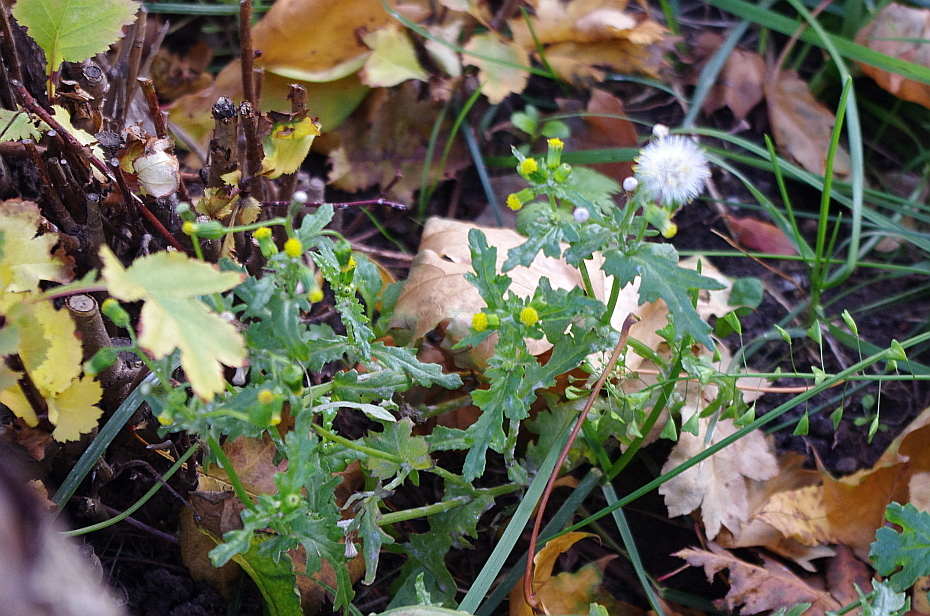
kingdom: Plantae
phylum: Tracheophyta
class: Magnoliopsida
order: Asterales
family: Asteraceae
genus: Senecio
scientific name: Senecio vulgaris
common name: Old-man-in-the-spring
